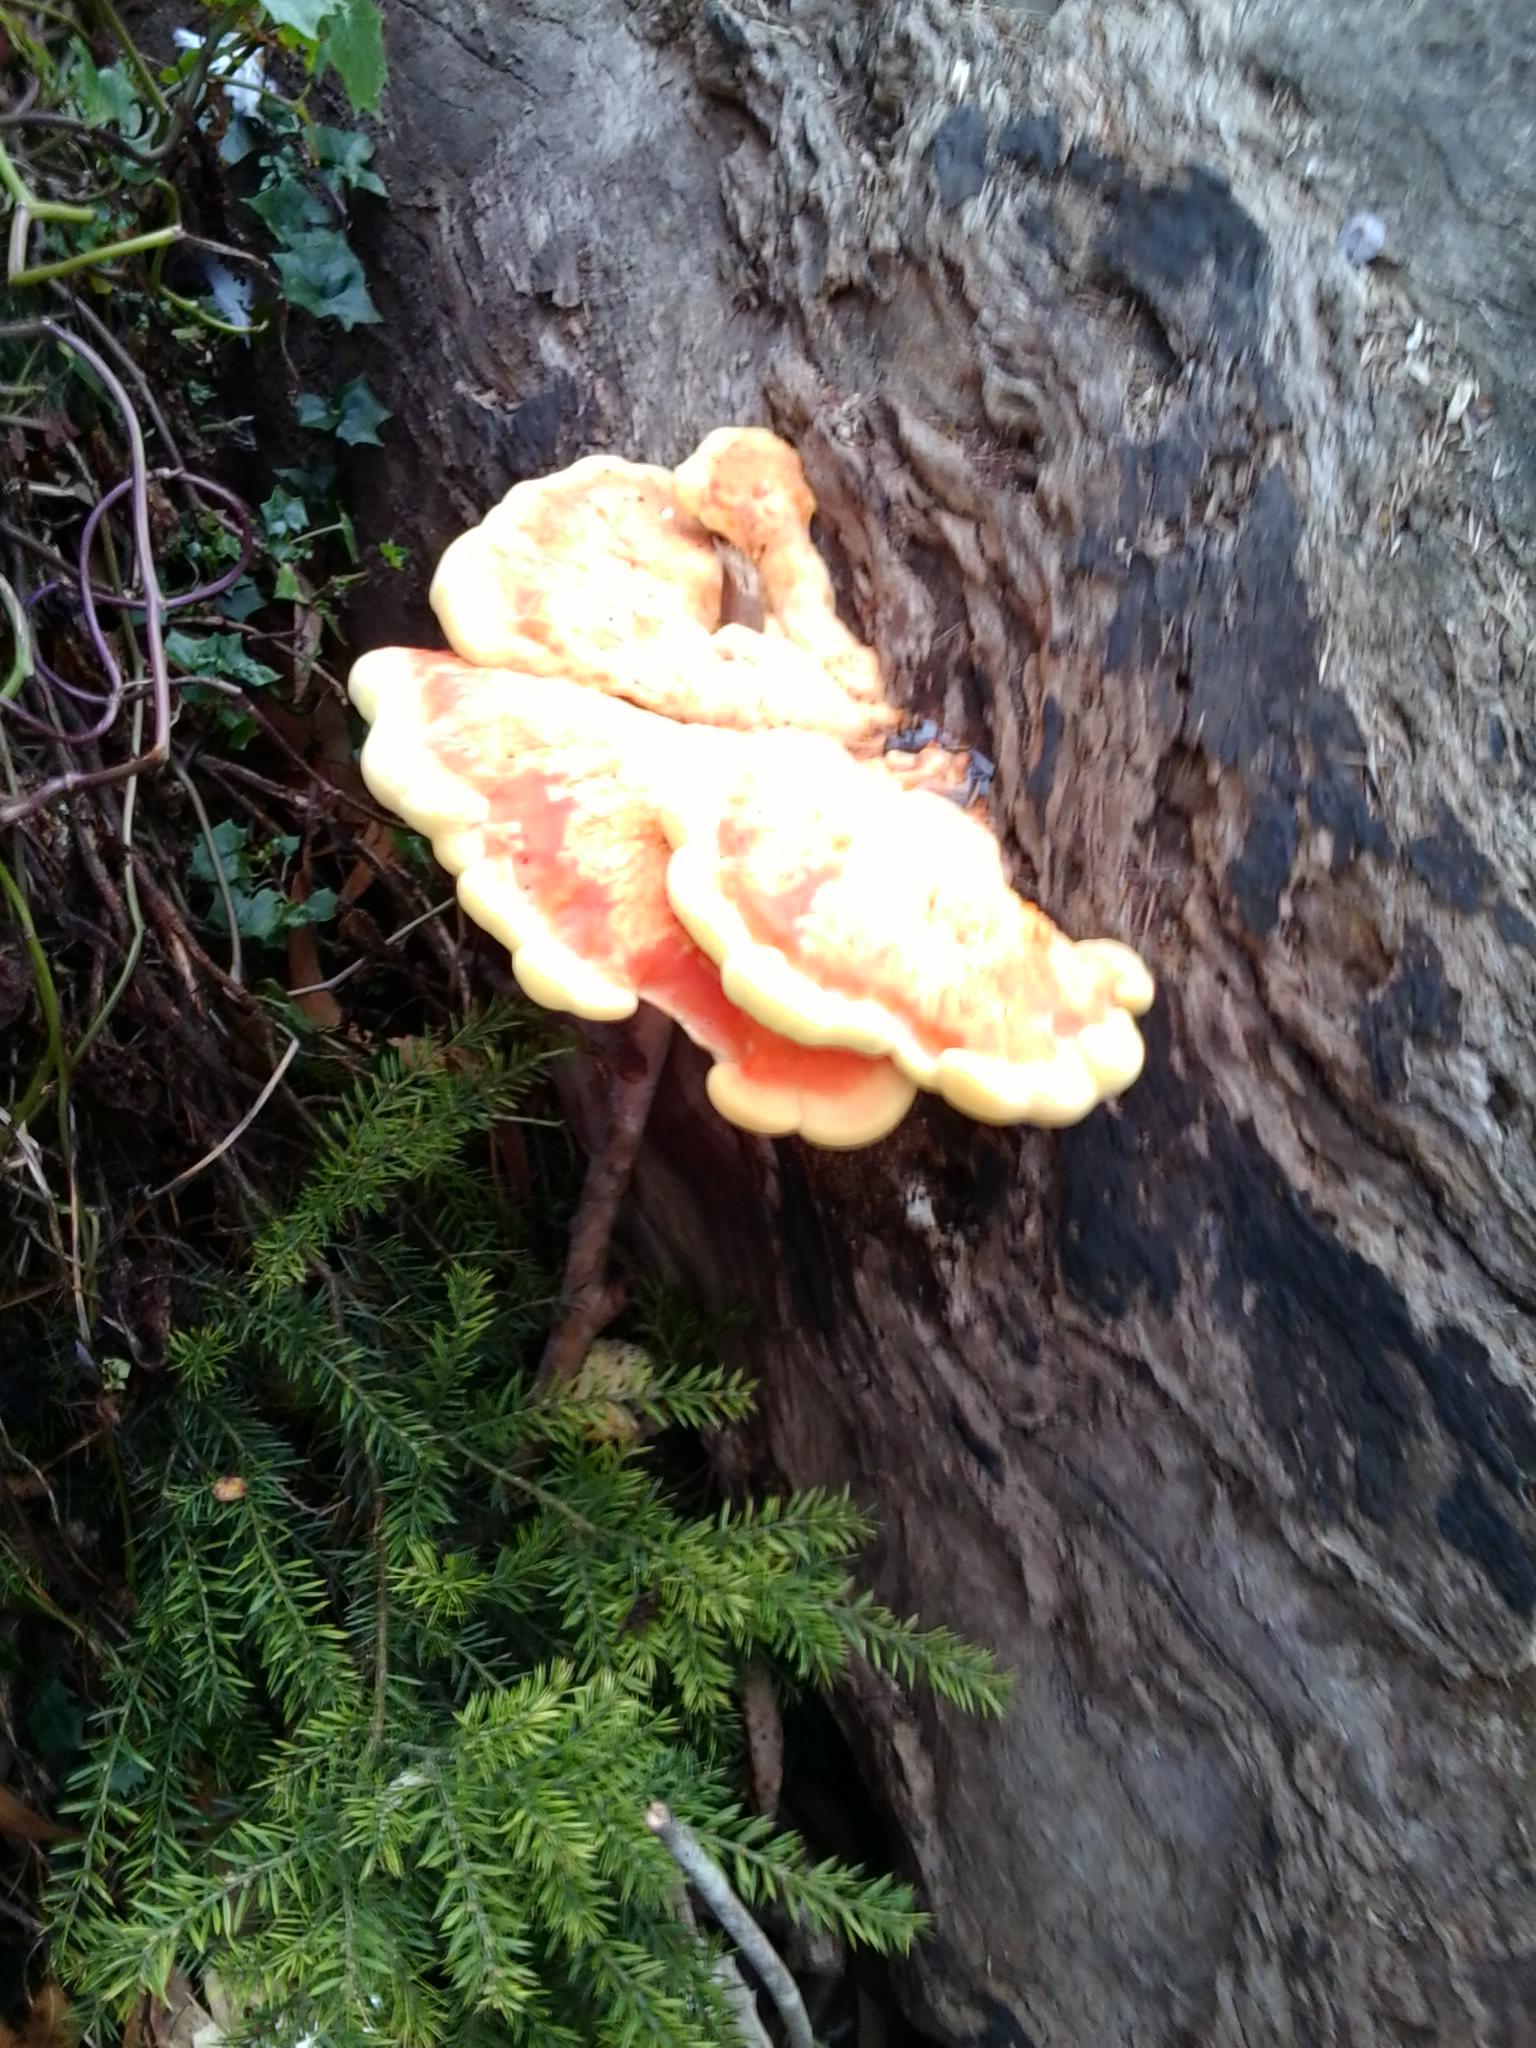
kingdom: Fungi
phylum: Basidiomycota
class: Agaricomycetes
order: Polyporales
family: Laetiporaceae
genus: Laetiporus
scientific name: Laetiporus gilbertsonii
